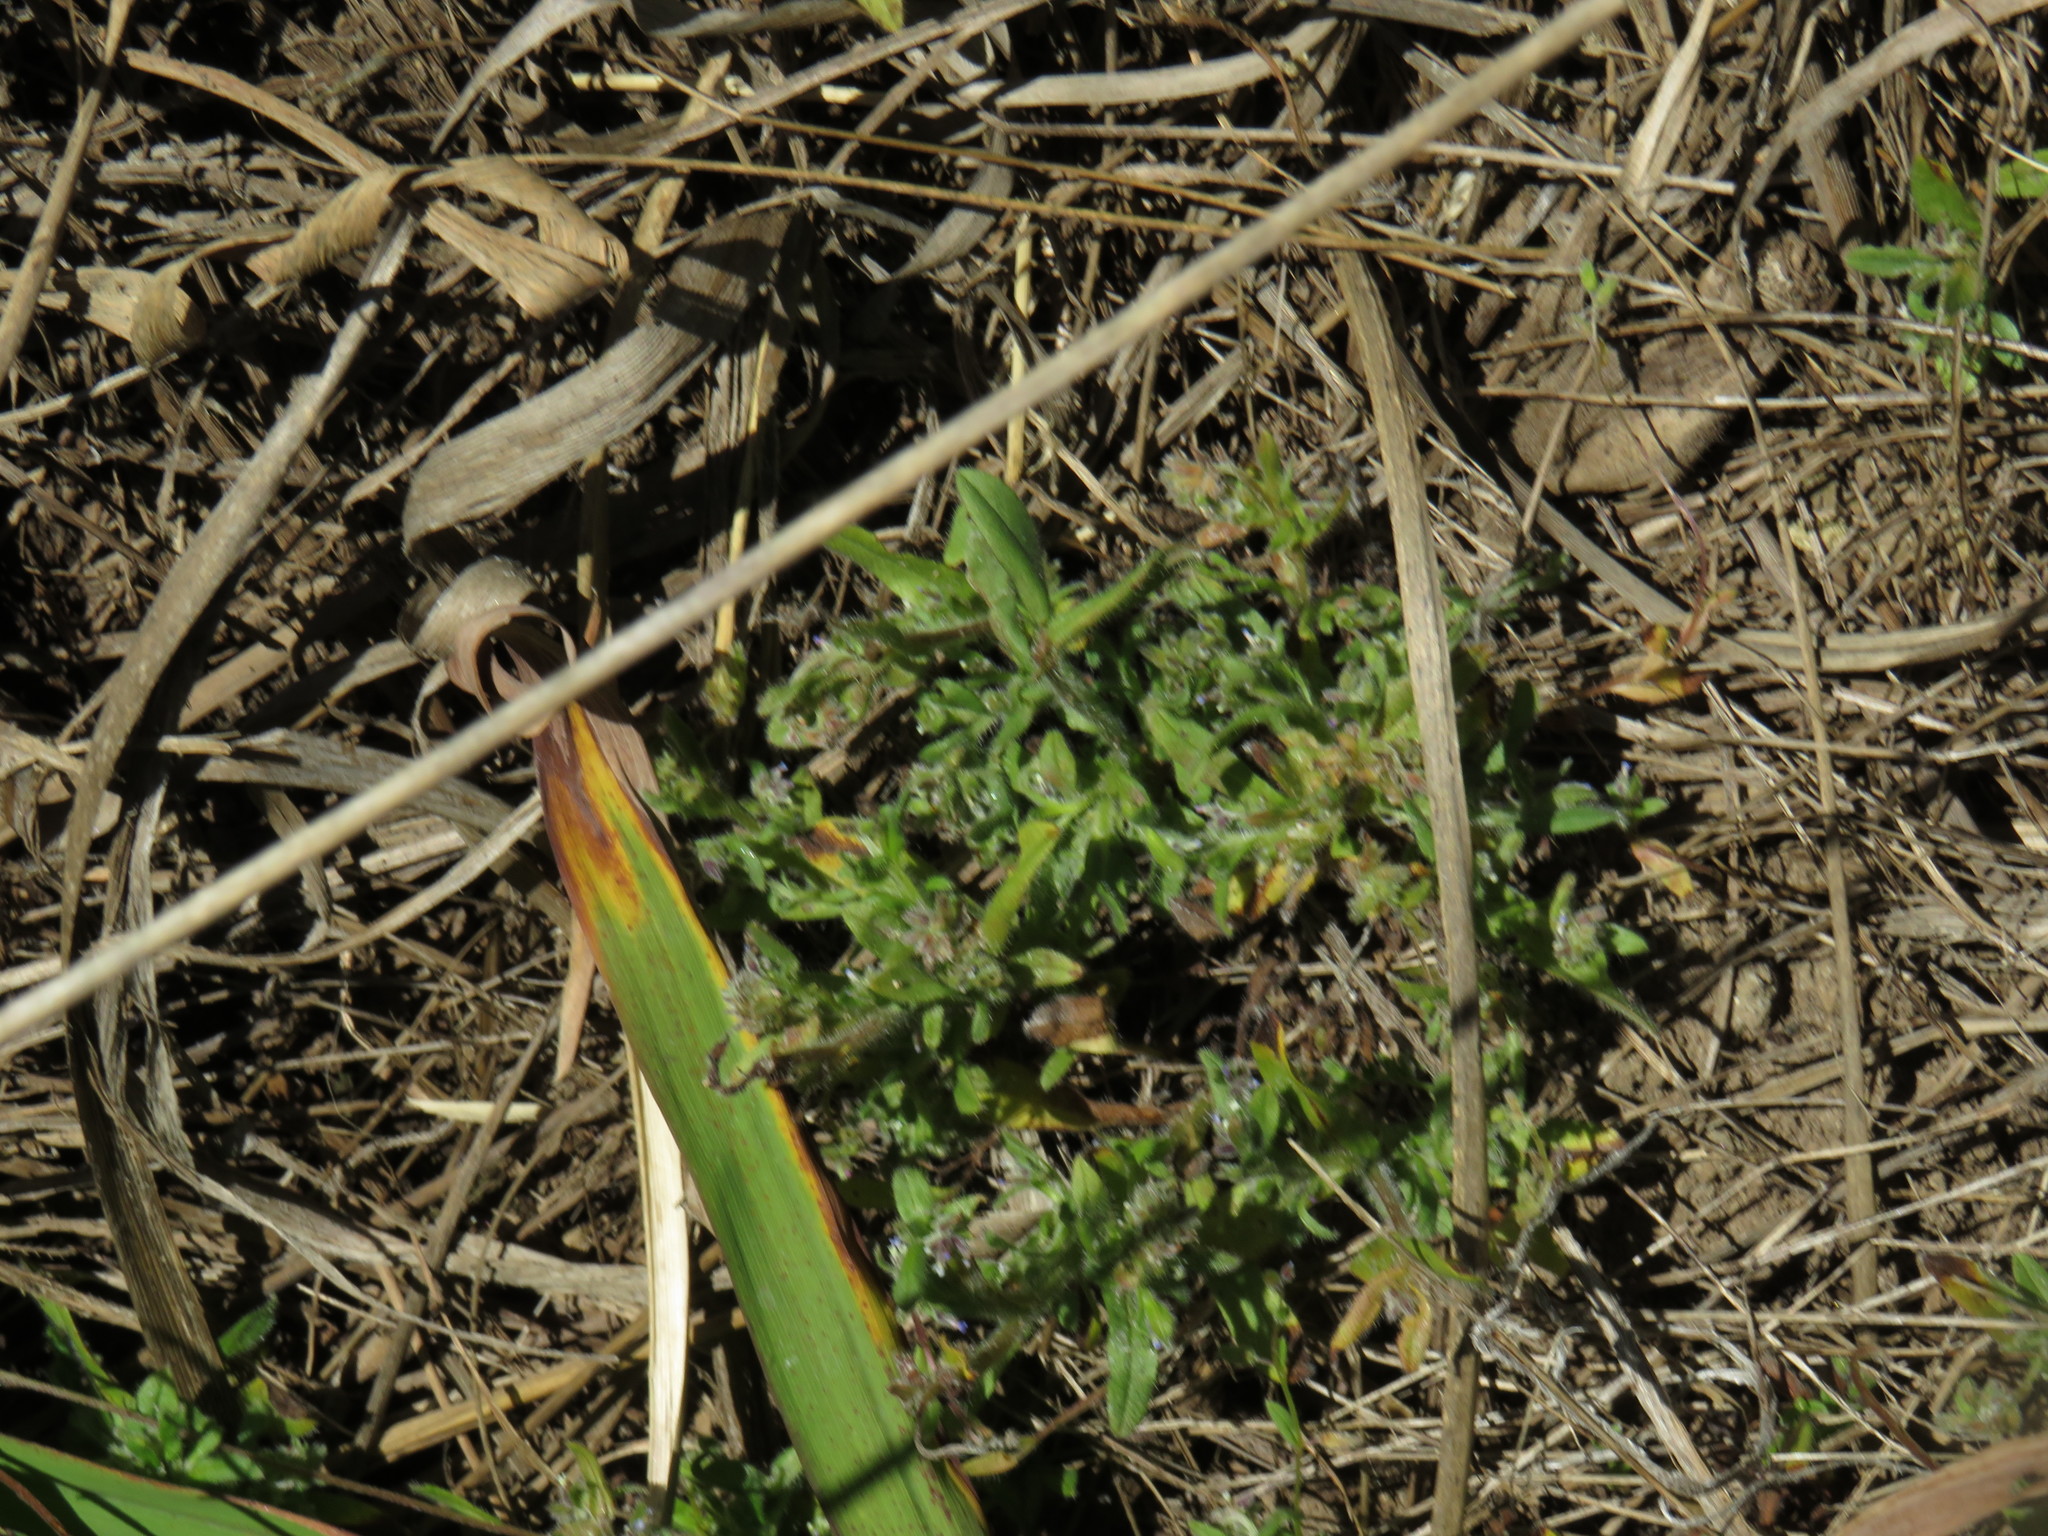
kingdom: Plantae
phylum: Tracheophyta
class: Magnoliopsida
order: Asterales
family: Campanulaceae
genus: Microcodon
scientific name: Microcodon glomeratus
